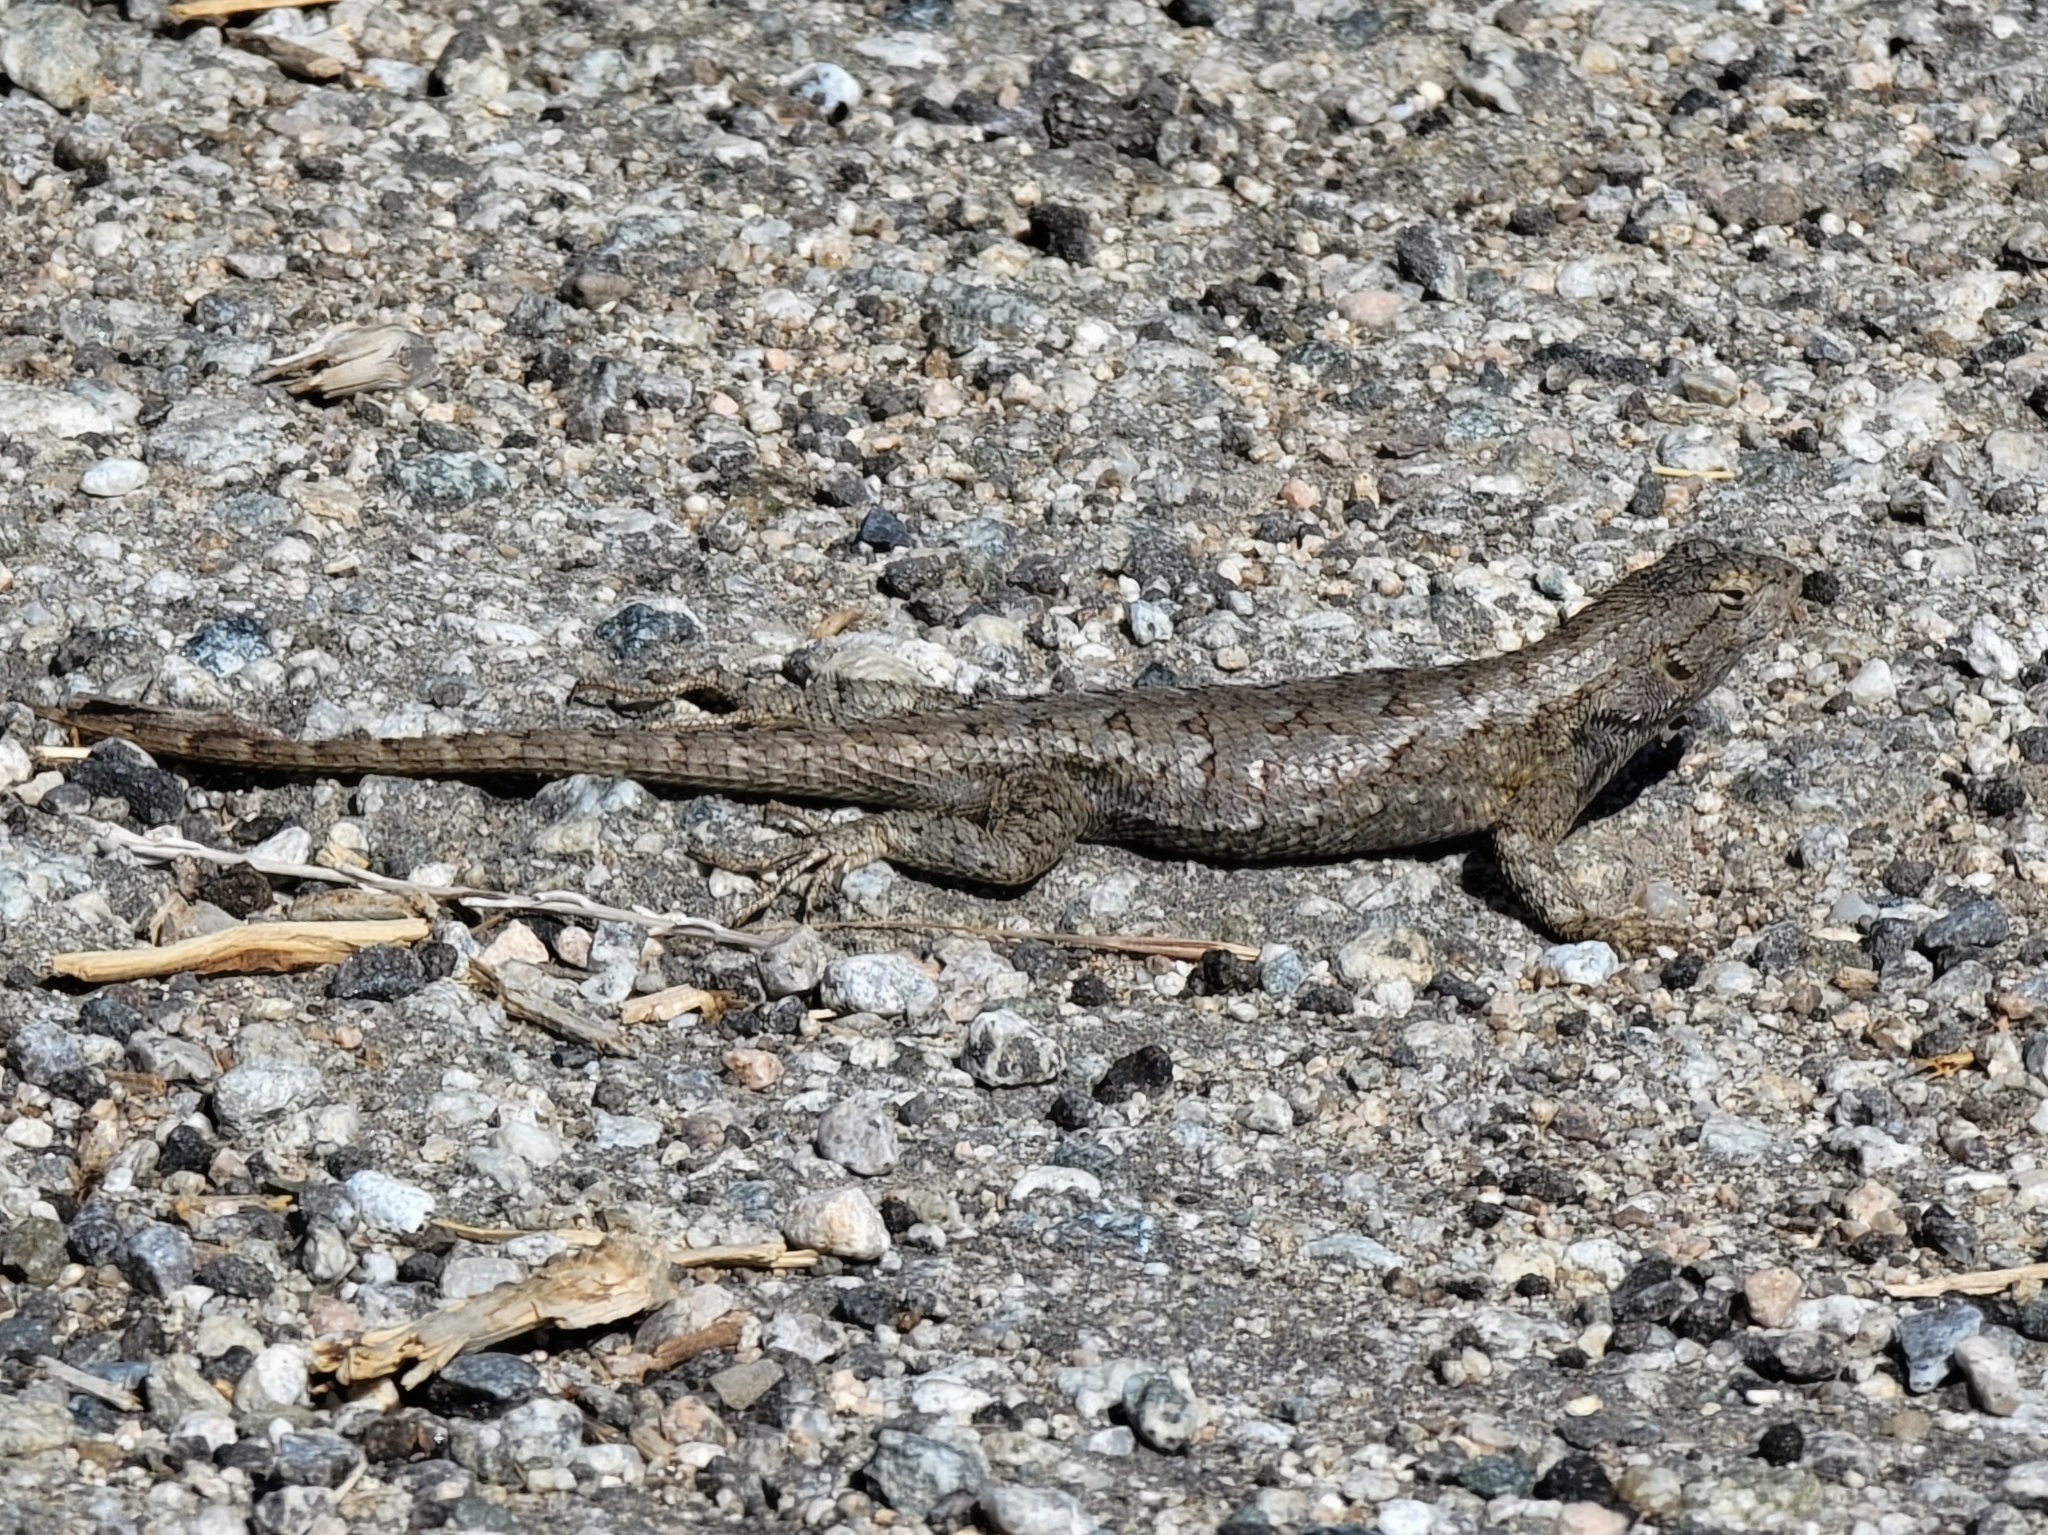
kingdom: Animalia
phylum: Chordata
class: Squamata
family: Phrynosomatidae
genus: Sceloporus
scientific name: Sceloporus occidentalis
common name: Western fence lizard
